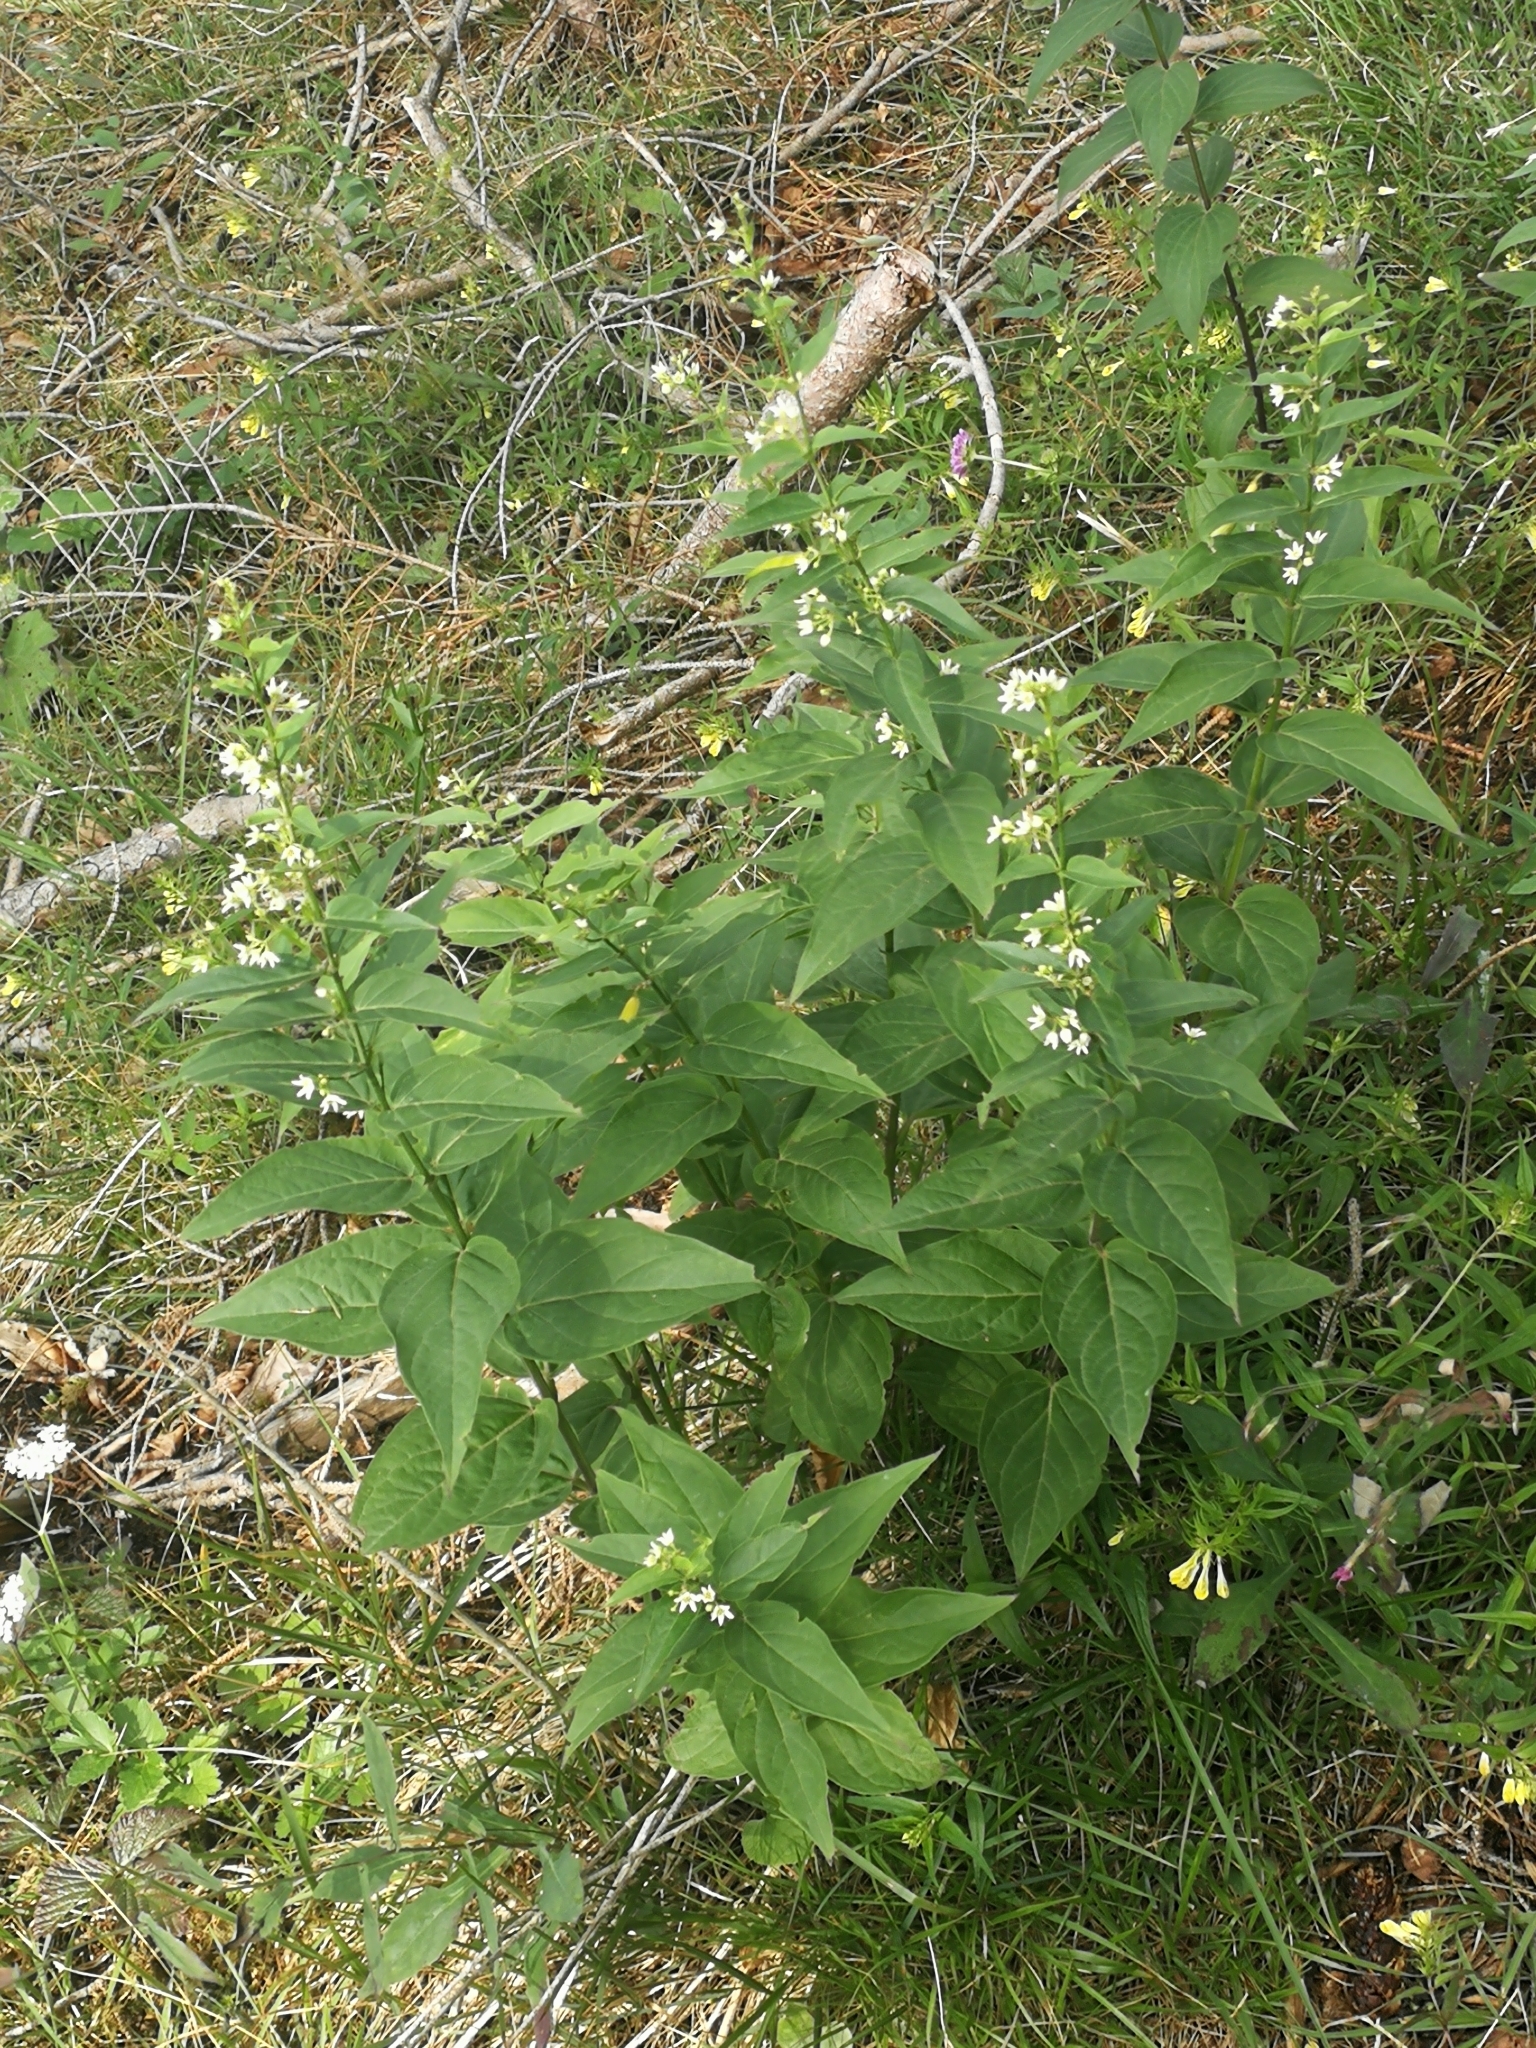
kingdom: Plantae
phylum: Tracheophyta
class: Magnoliopsida
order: Gentianales
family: Apocynaceae
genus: Vincetoxicum
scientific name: Vincetoxicum hirundinaria
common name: White swallowwort
